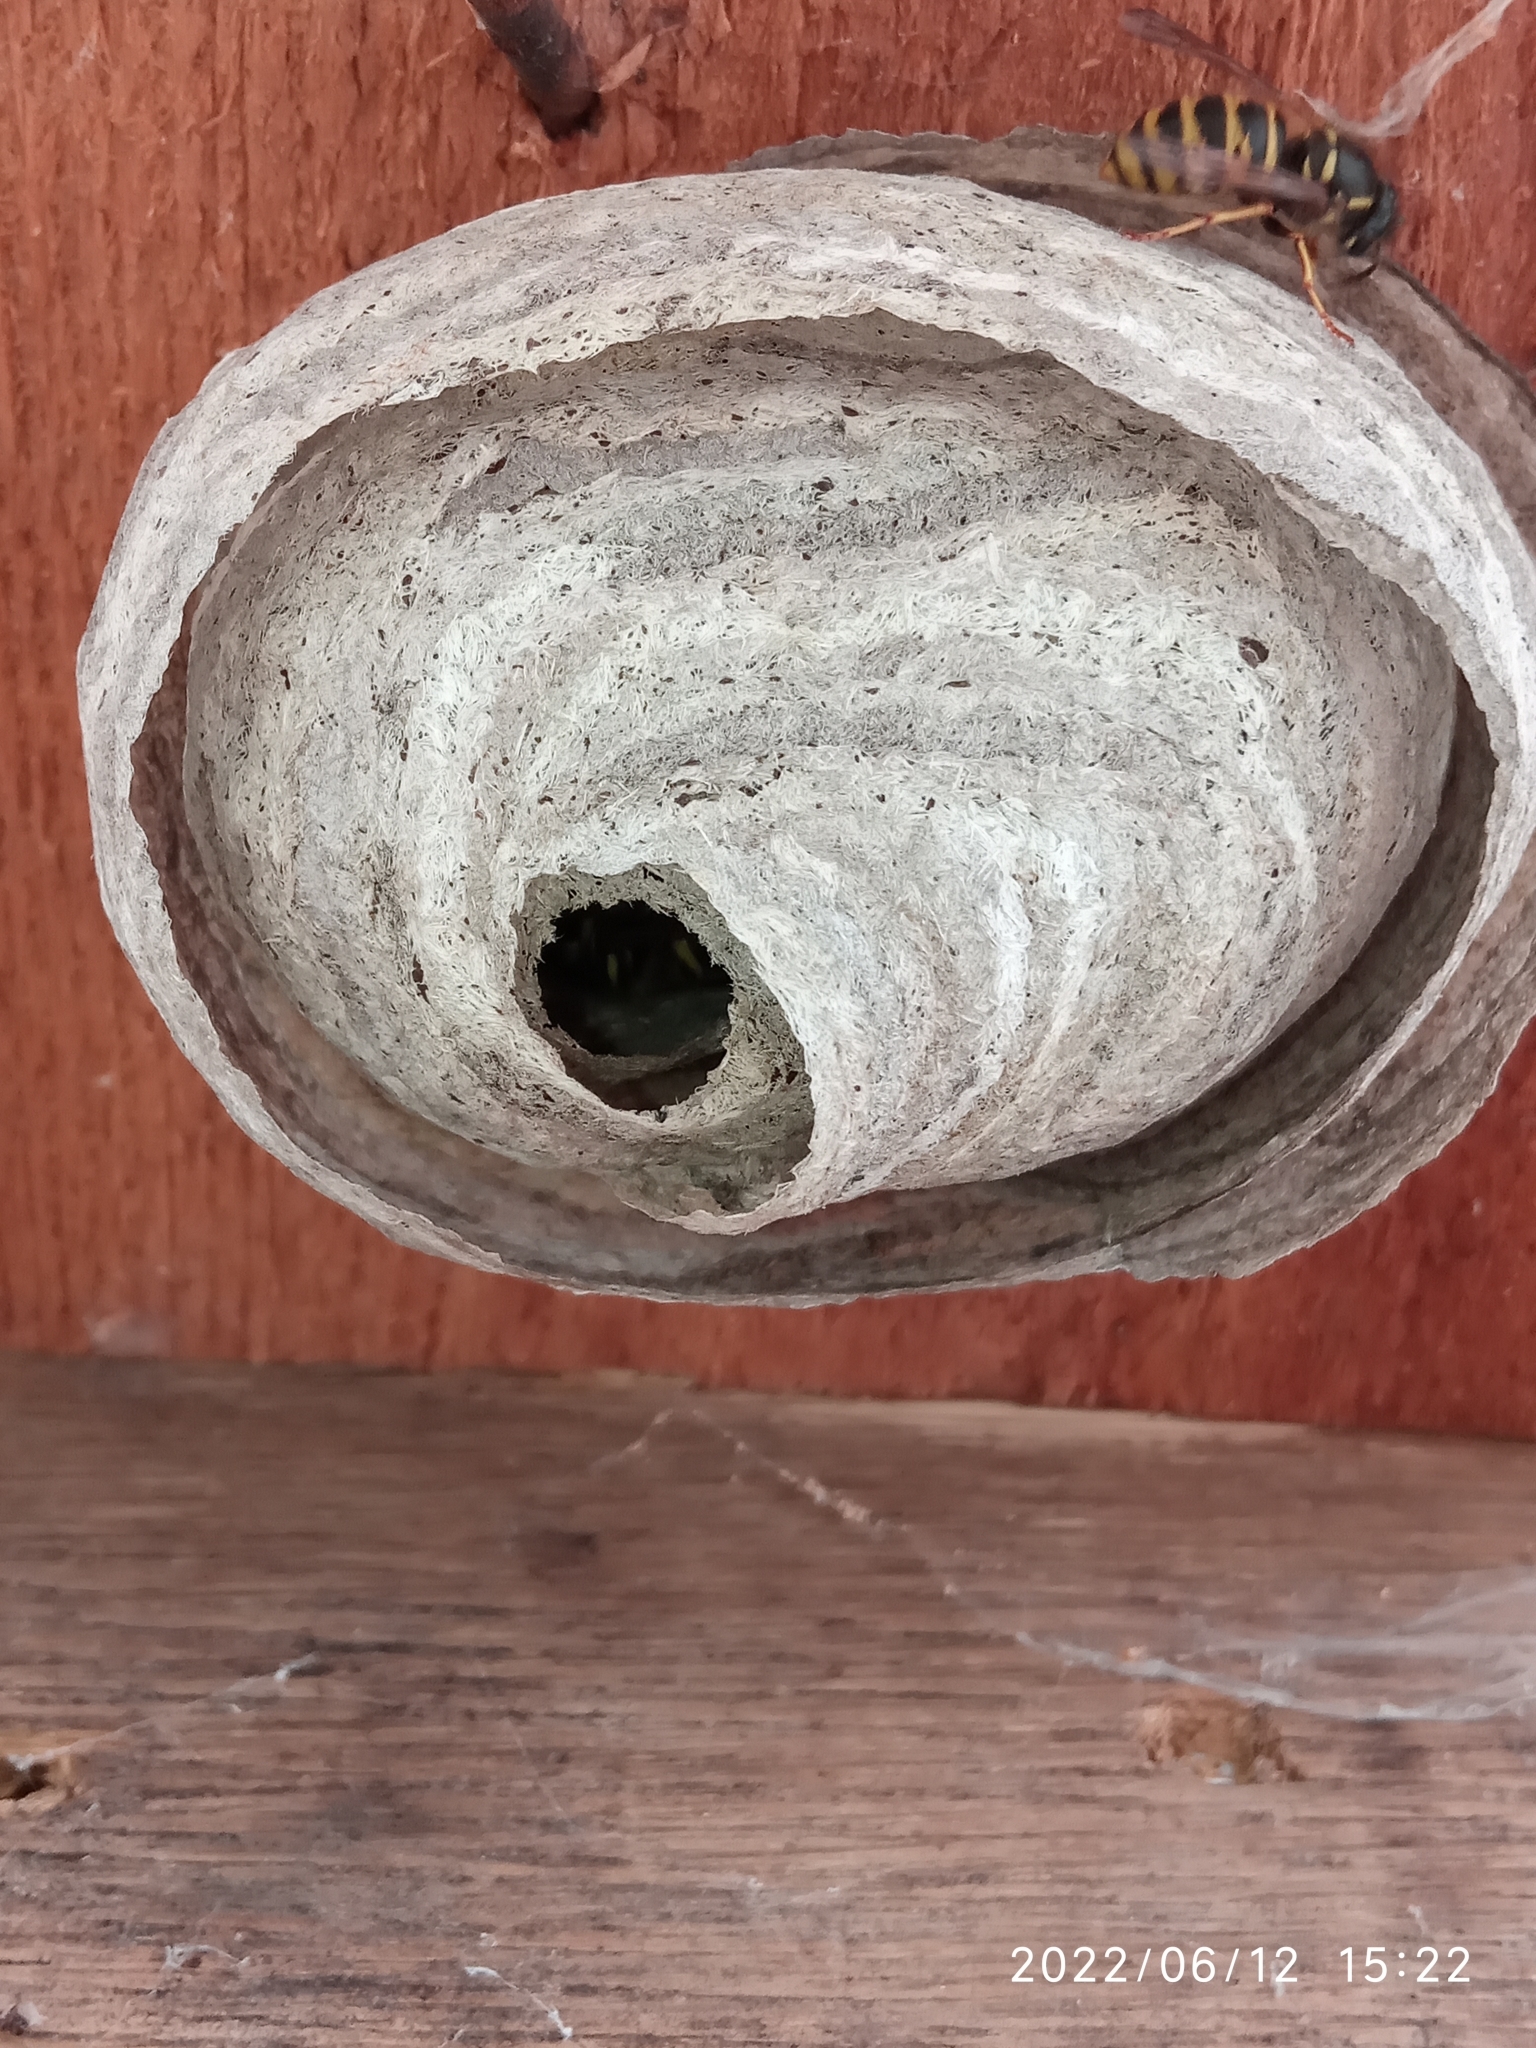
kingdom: Animalia
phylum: Arthropoda
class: Insecta
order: Hymenoptera
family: Vespidae
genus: Dolichovespula
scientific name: Dolichovespula saxonica
